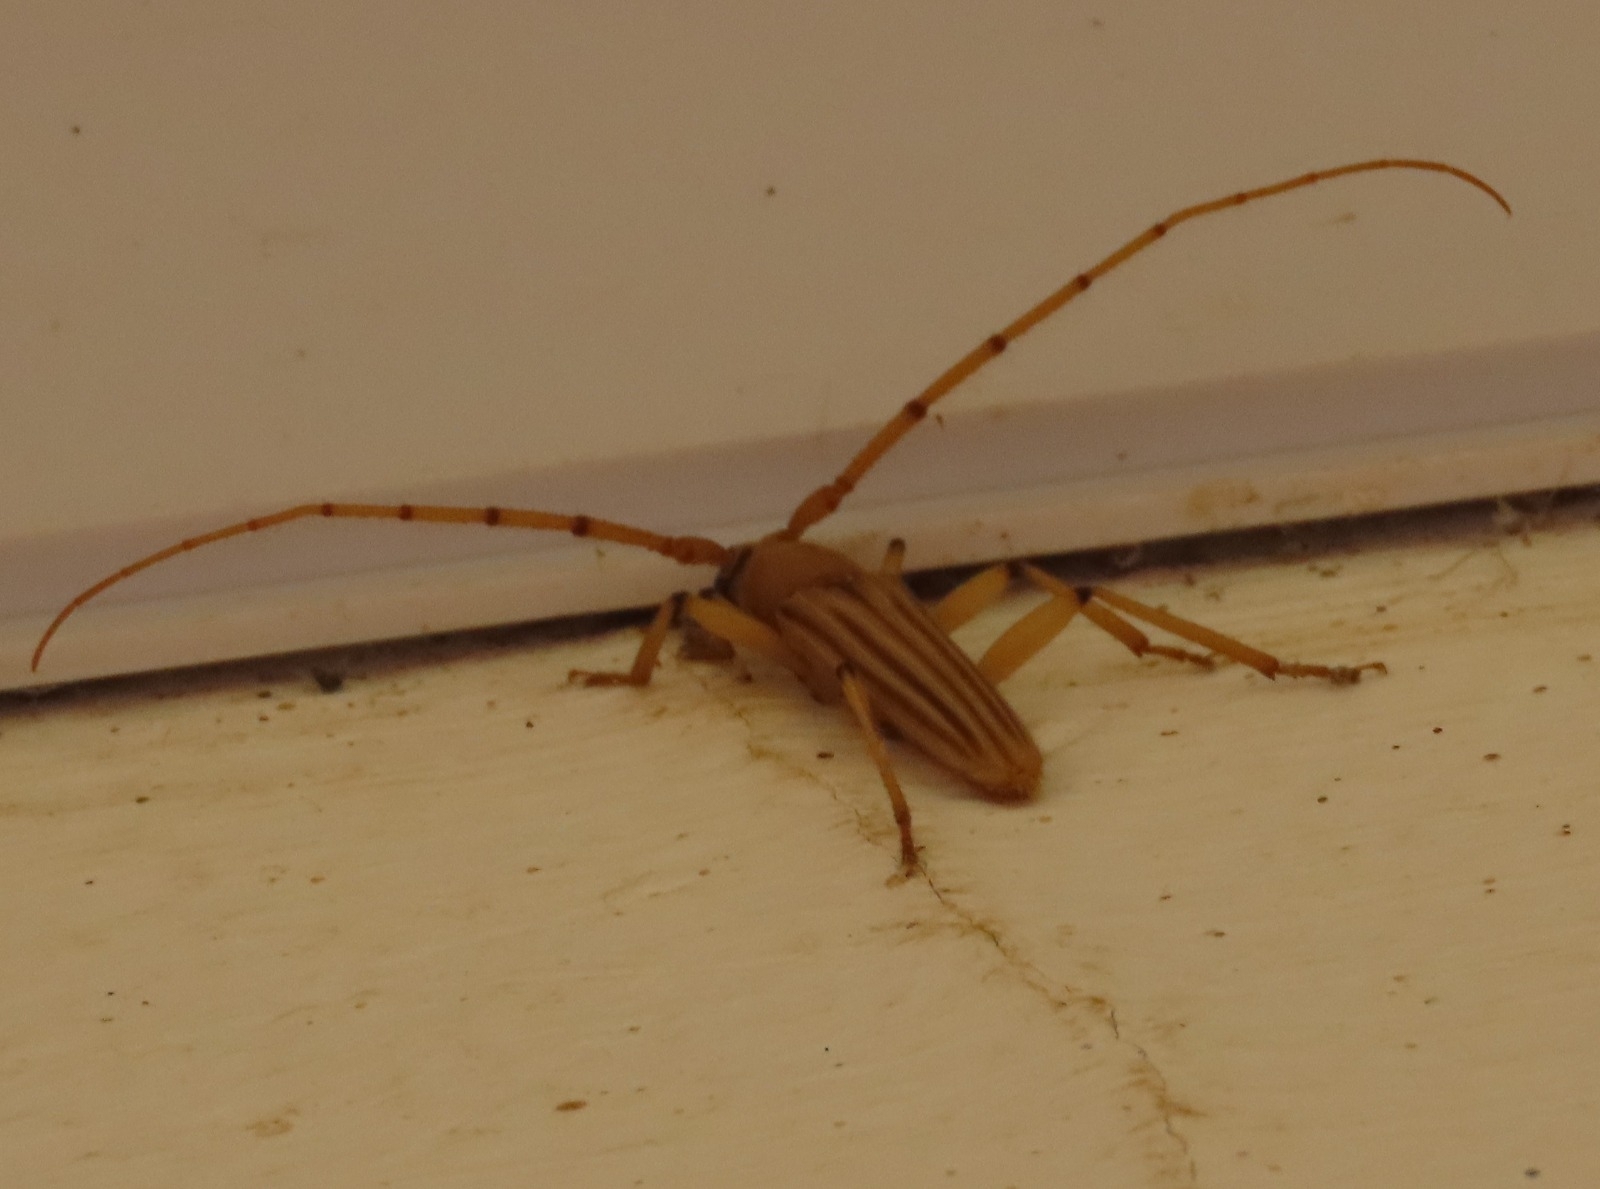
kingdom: Animalia
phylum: Arthropoda
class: Insecta
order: Coleoptera
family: Cerambycidae
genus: Malacopterus
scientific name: Malacopterus tenellus
